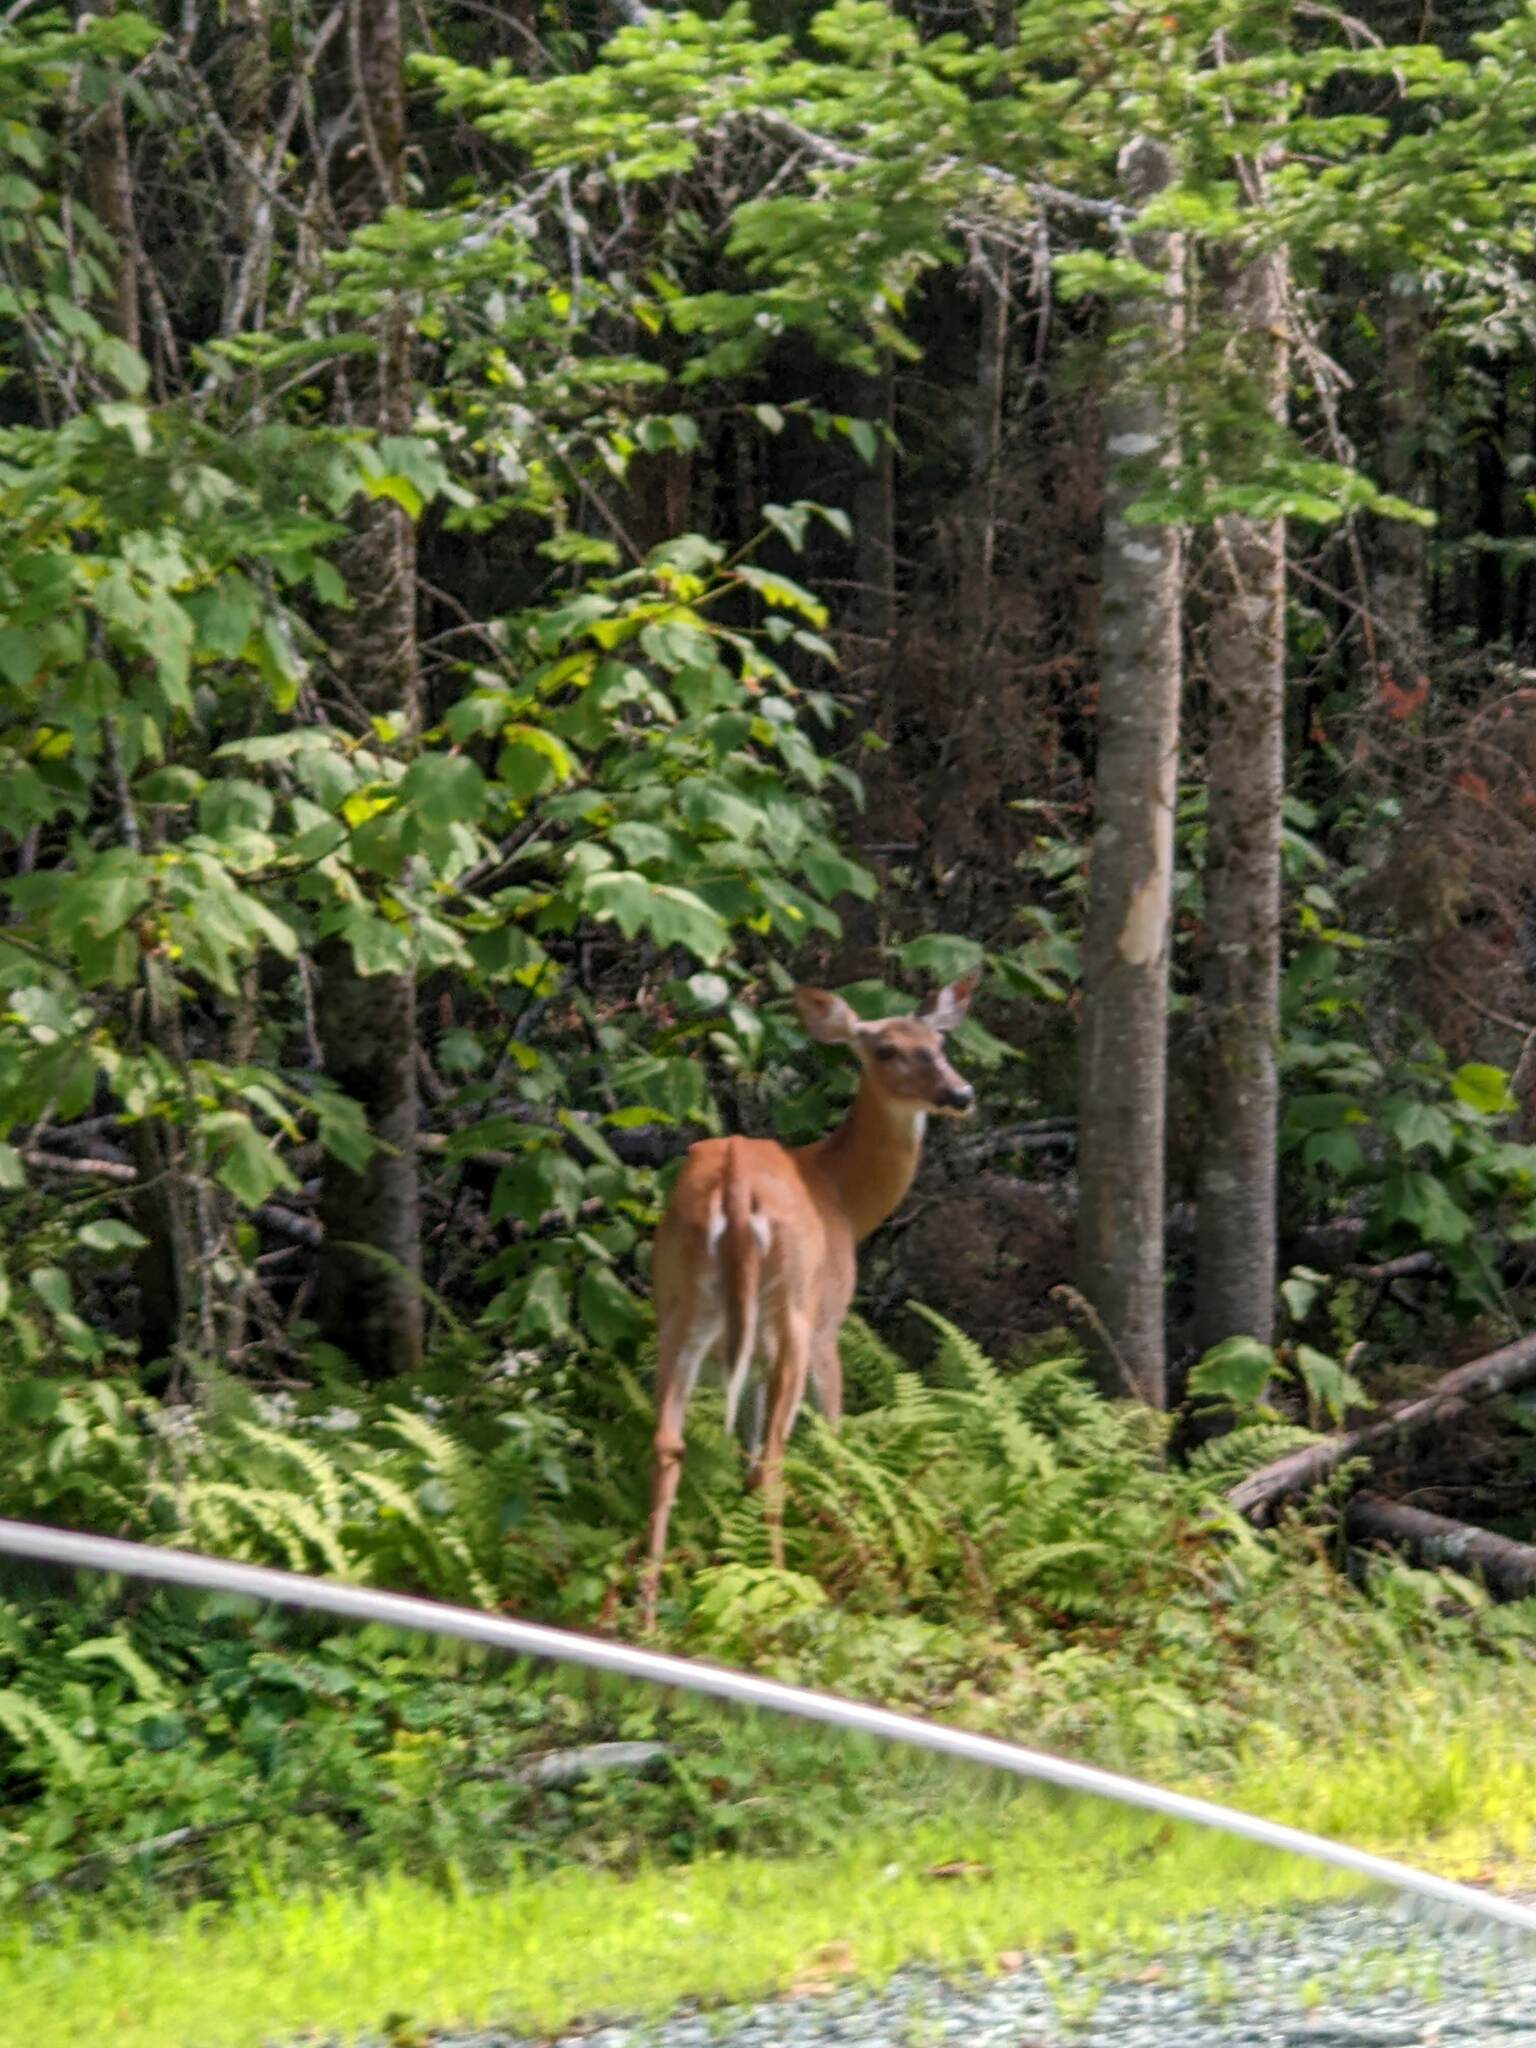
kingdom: Animalia
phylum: Chordata
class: Mammalia
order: Artiodactyla
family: Cervidae
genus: Odocoileus
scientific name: Odocoileus virginianus
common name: White-tailed deer
